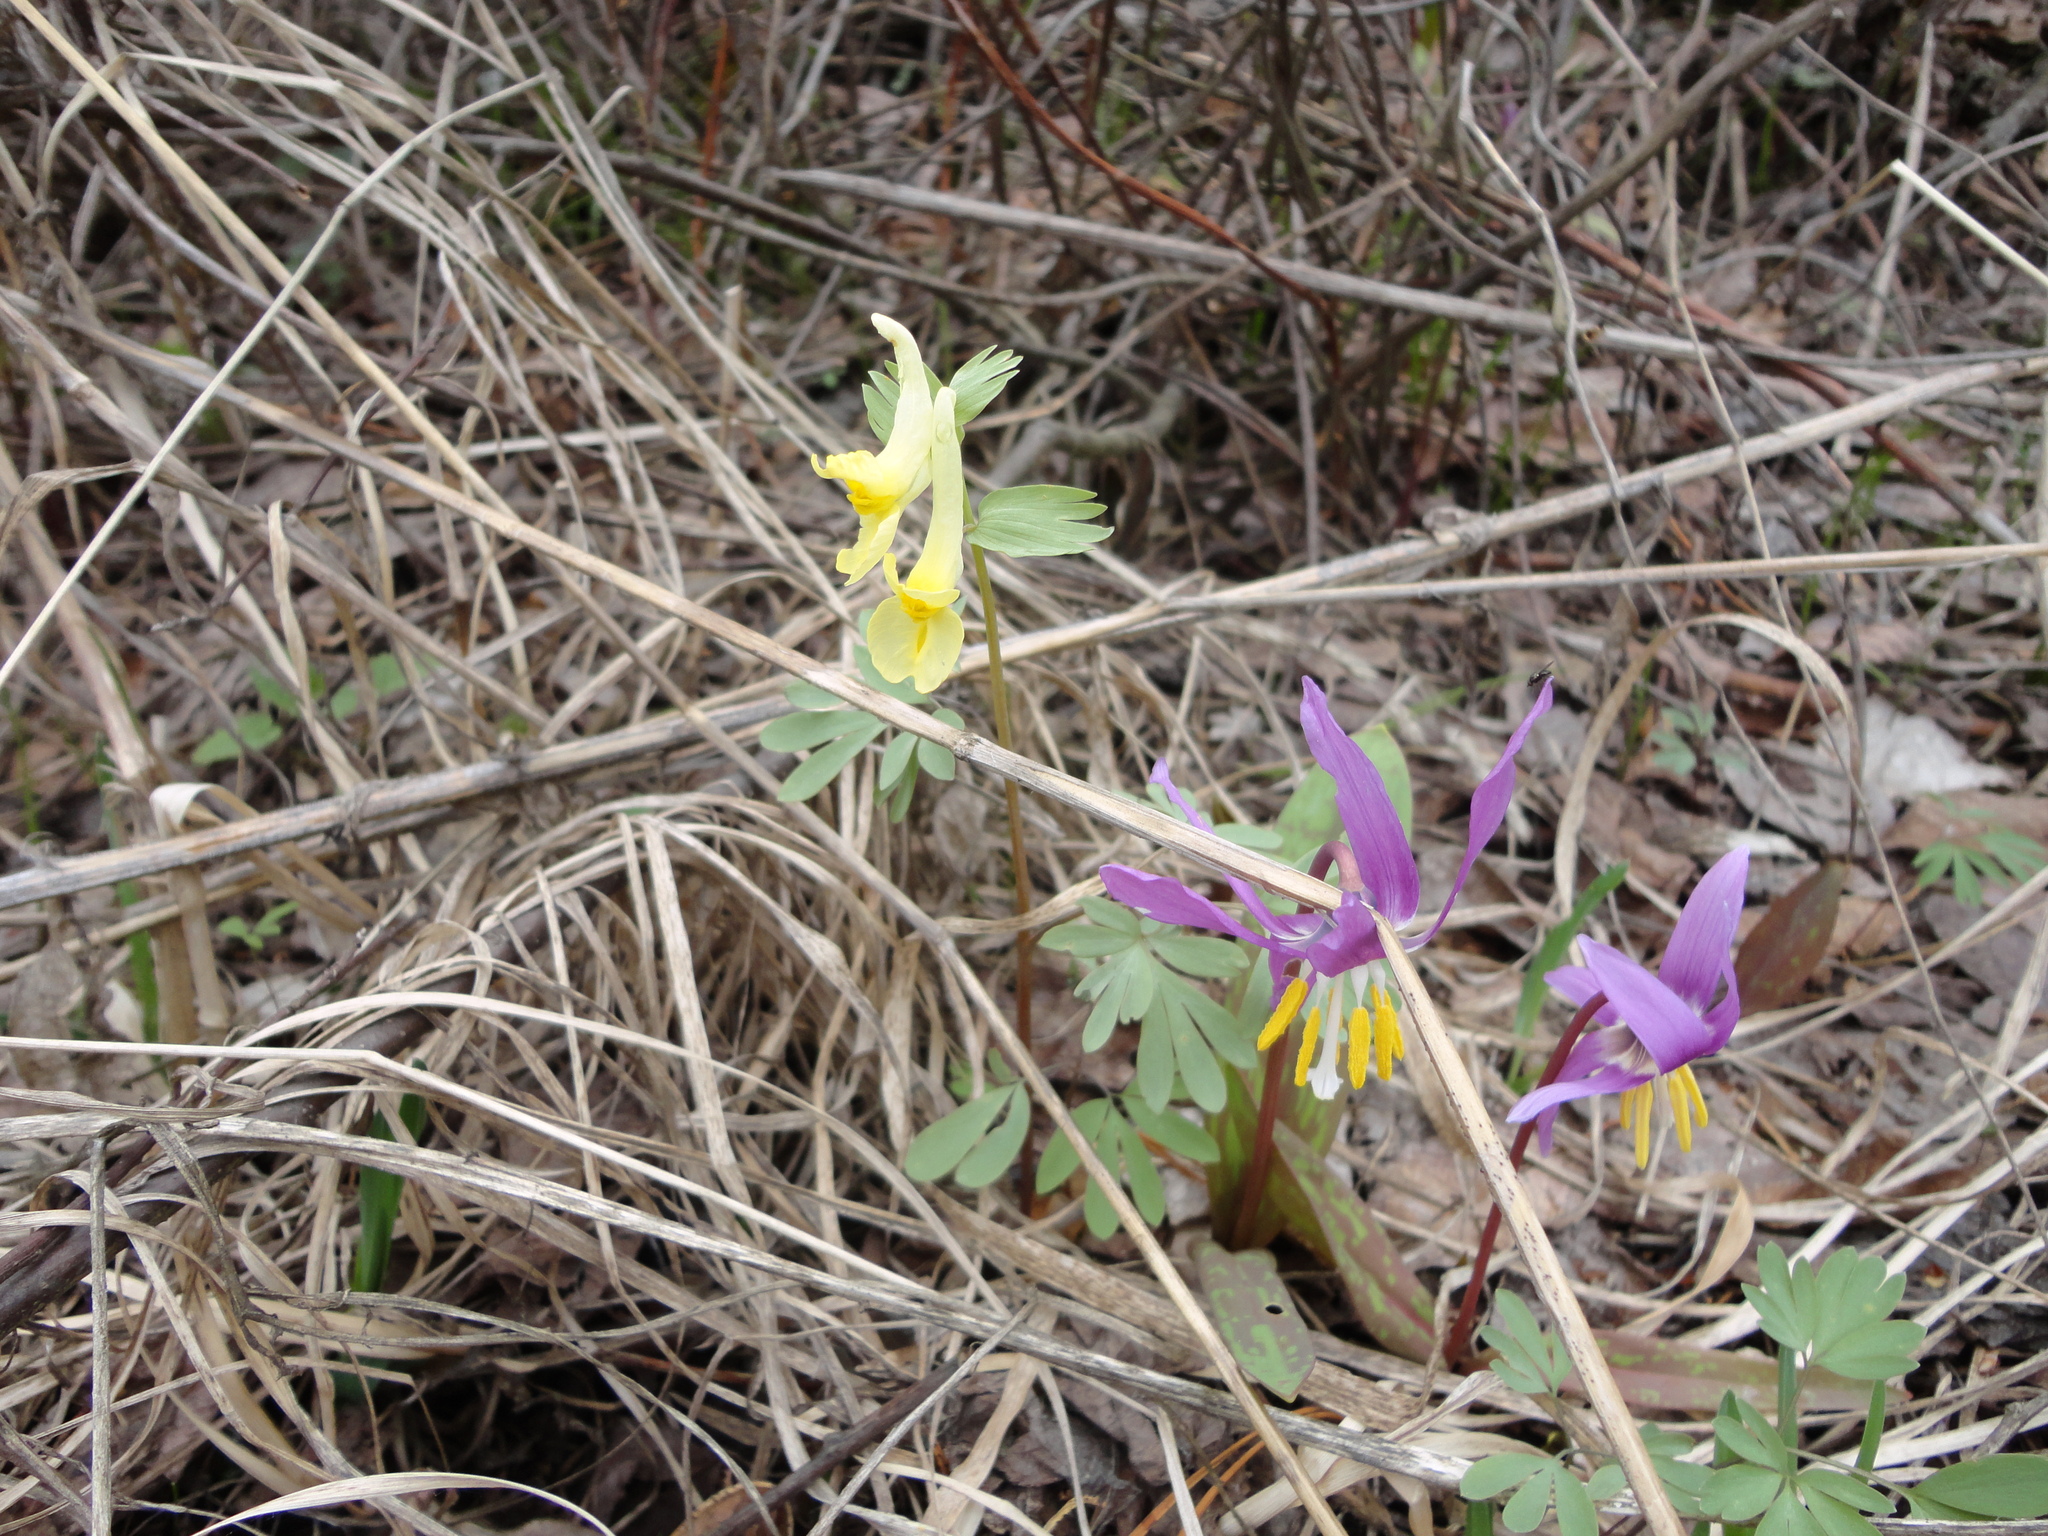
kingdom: Plantae
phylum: Tracheophyta
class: Magnoliopsida
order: Ranunculales
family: Papaveraceae
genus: Corydalis
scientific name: Corydalis bracteata
